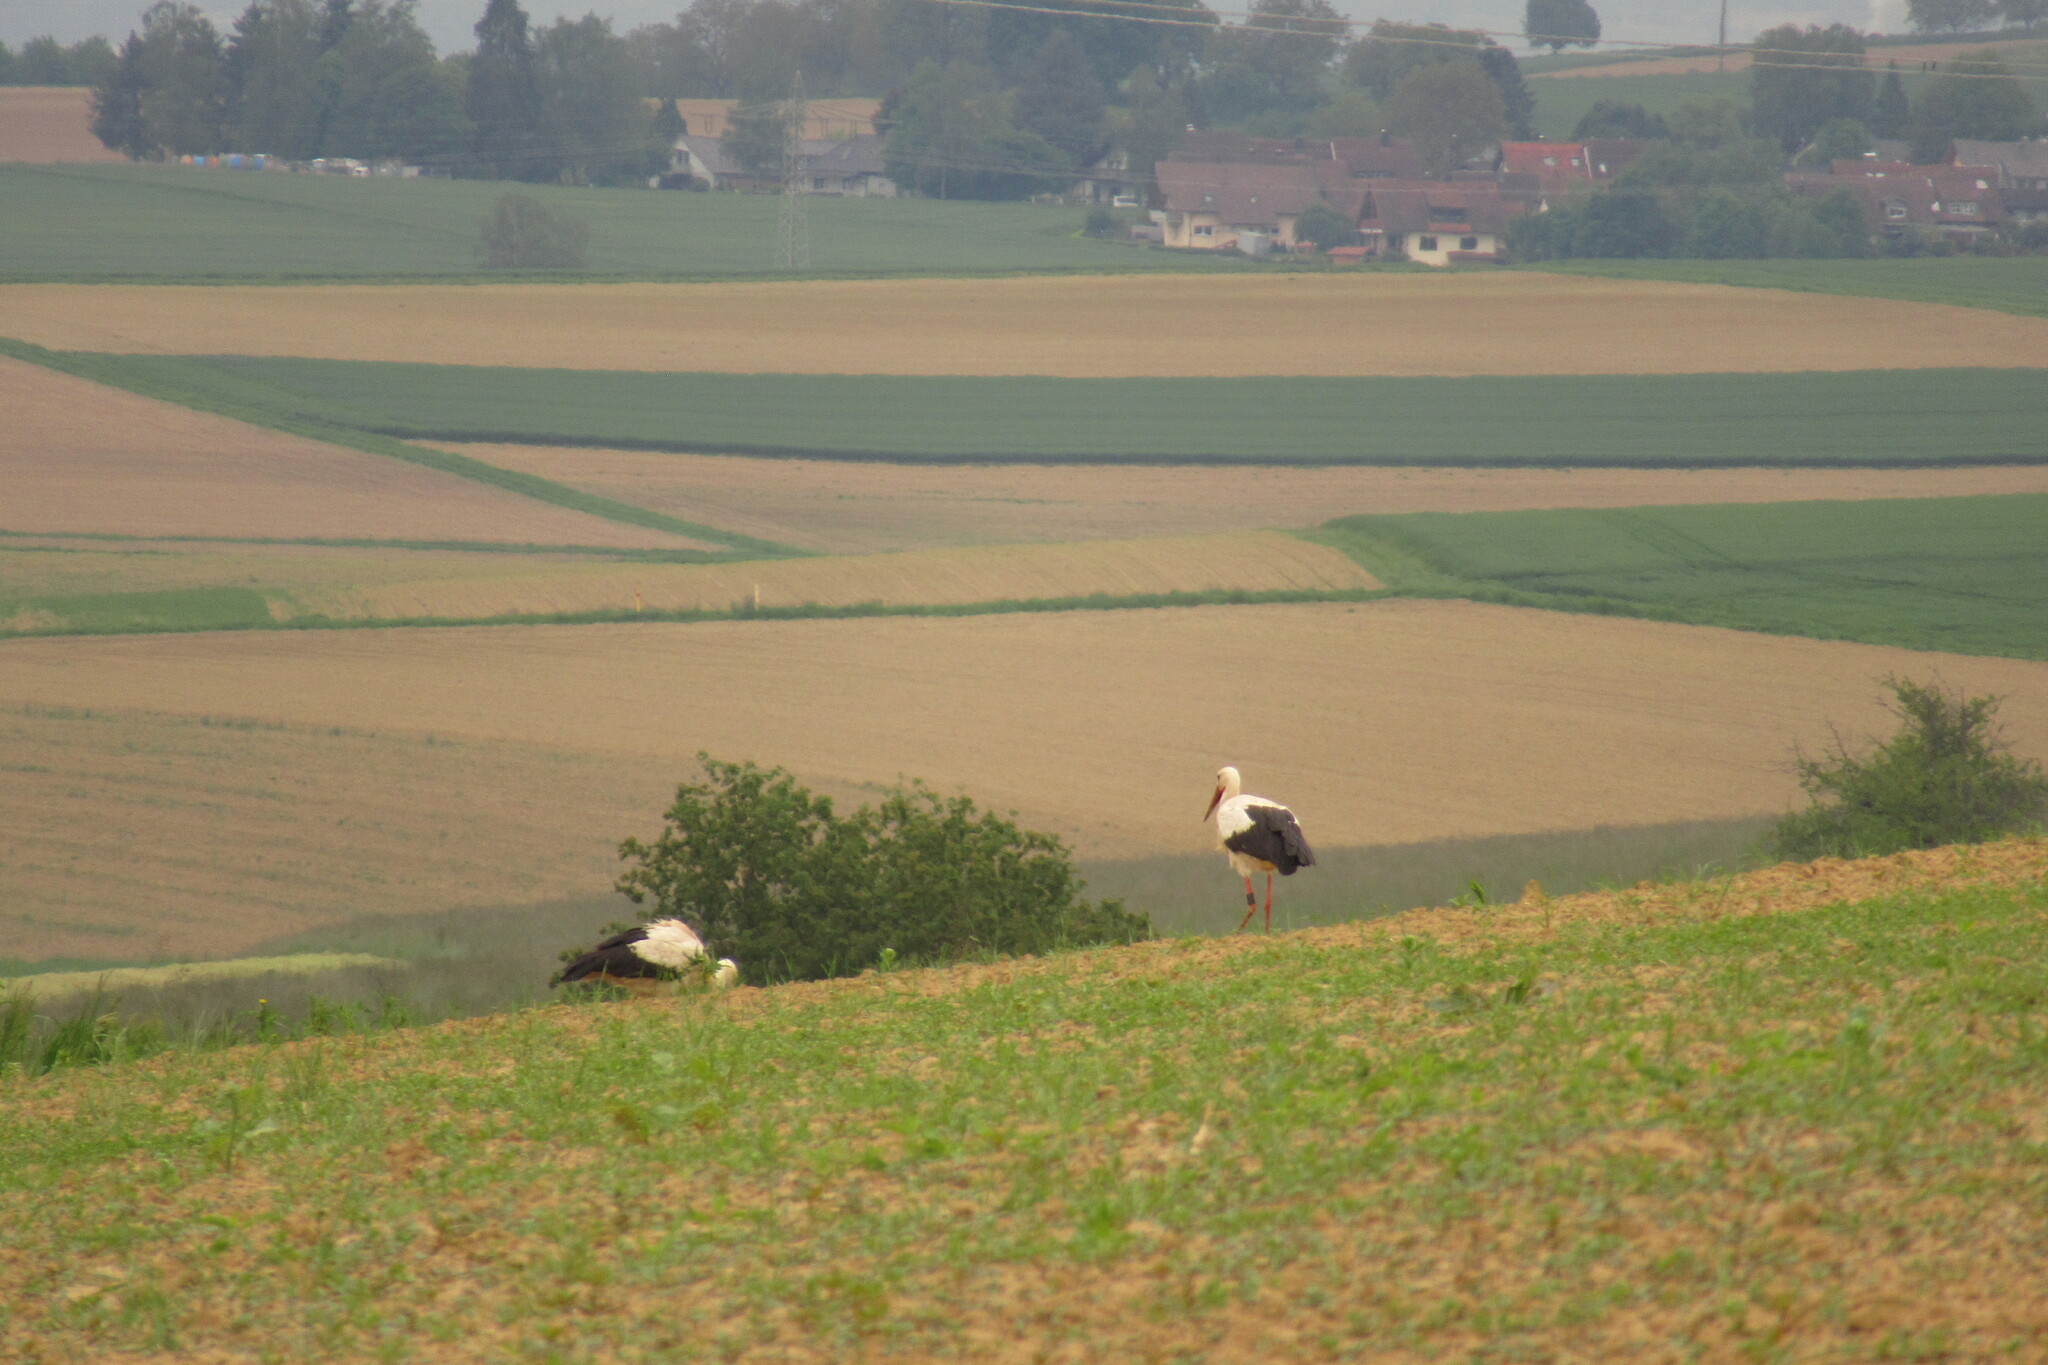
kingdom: Animalia
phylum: Chordata
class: Aves
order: Ciconiiformes
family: Ciconiidae
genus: Ciconia
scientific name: Ciconia ciconia
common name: White stork
